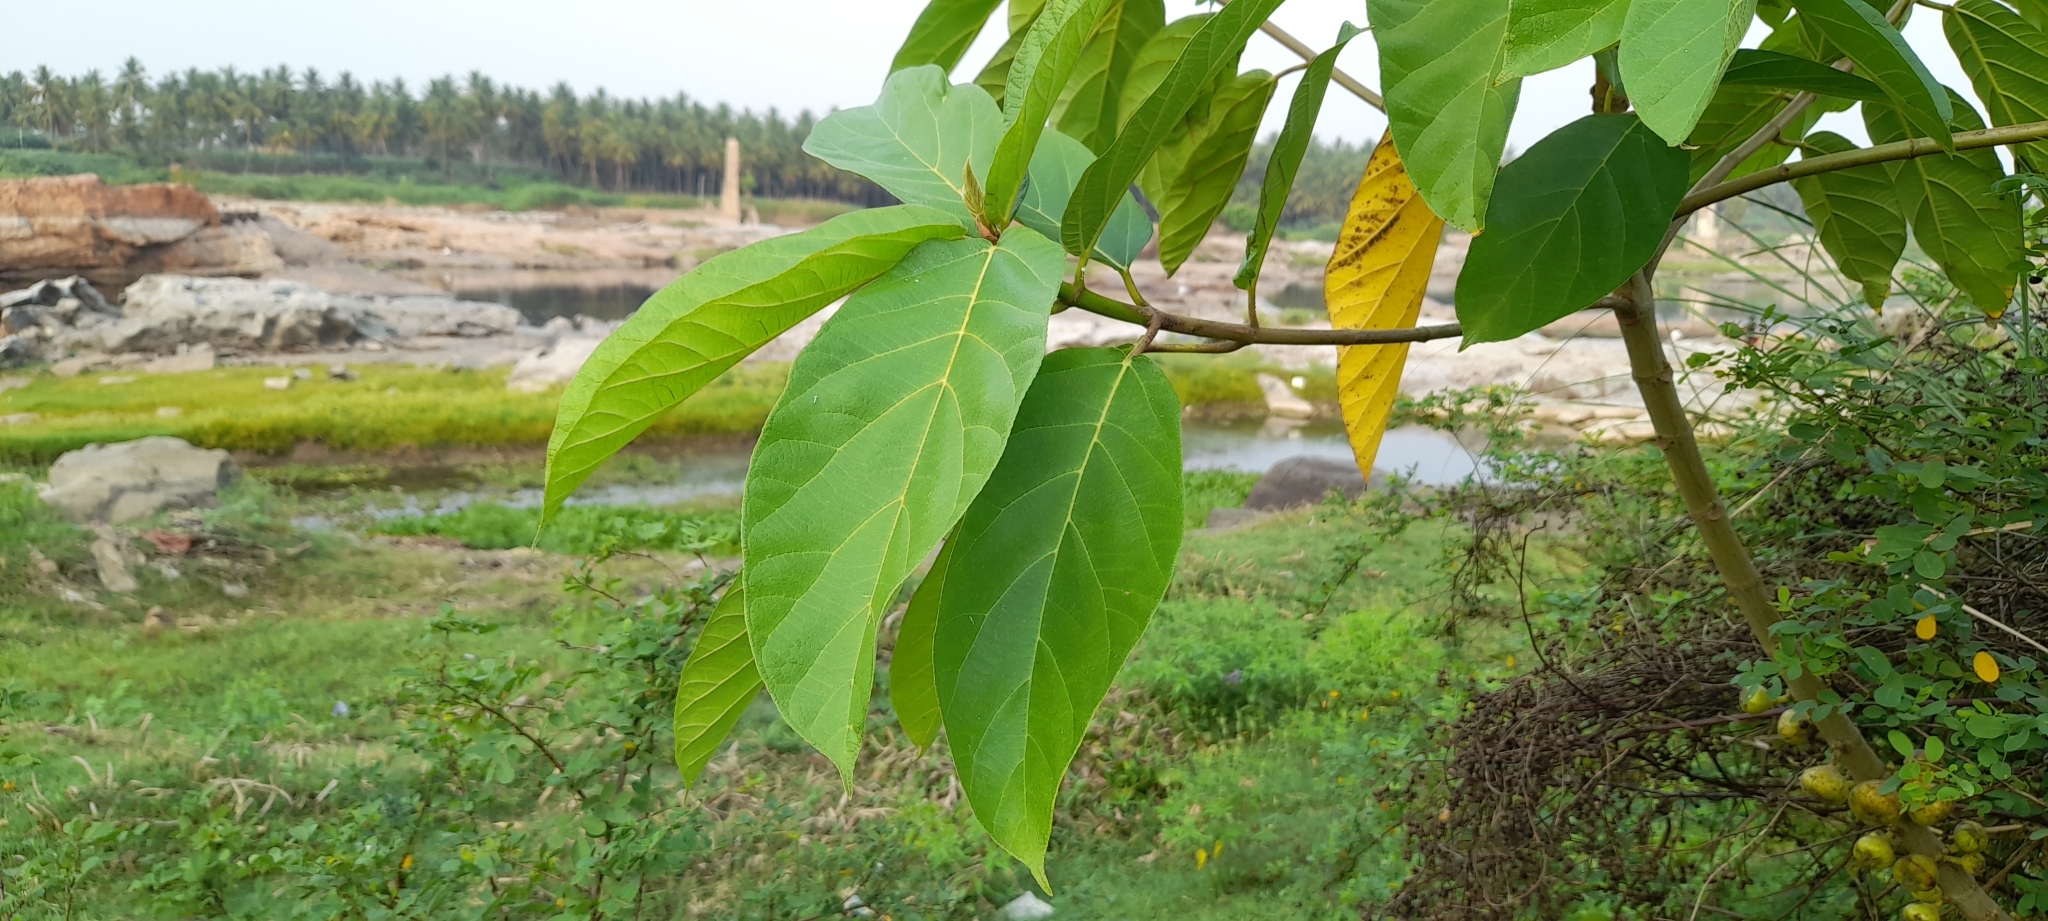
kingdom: Plantae
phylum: Tracheophyta
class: Magnoliopsida
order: Rosales
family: Moraceae
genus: Ficus
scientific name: Ficus hispida
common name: Hairy fig
